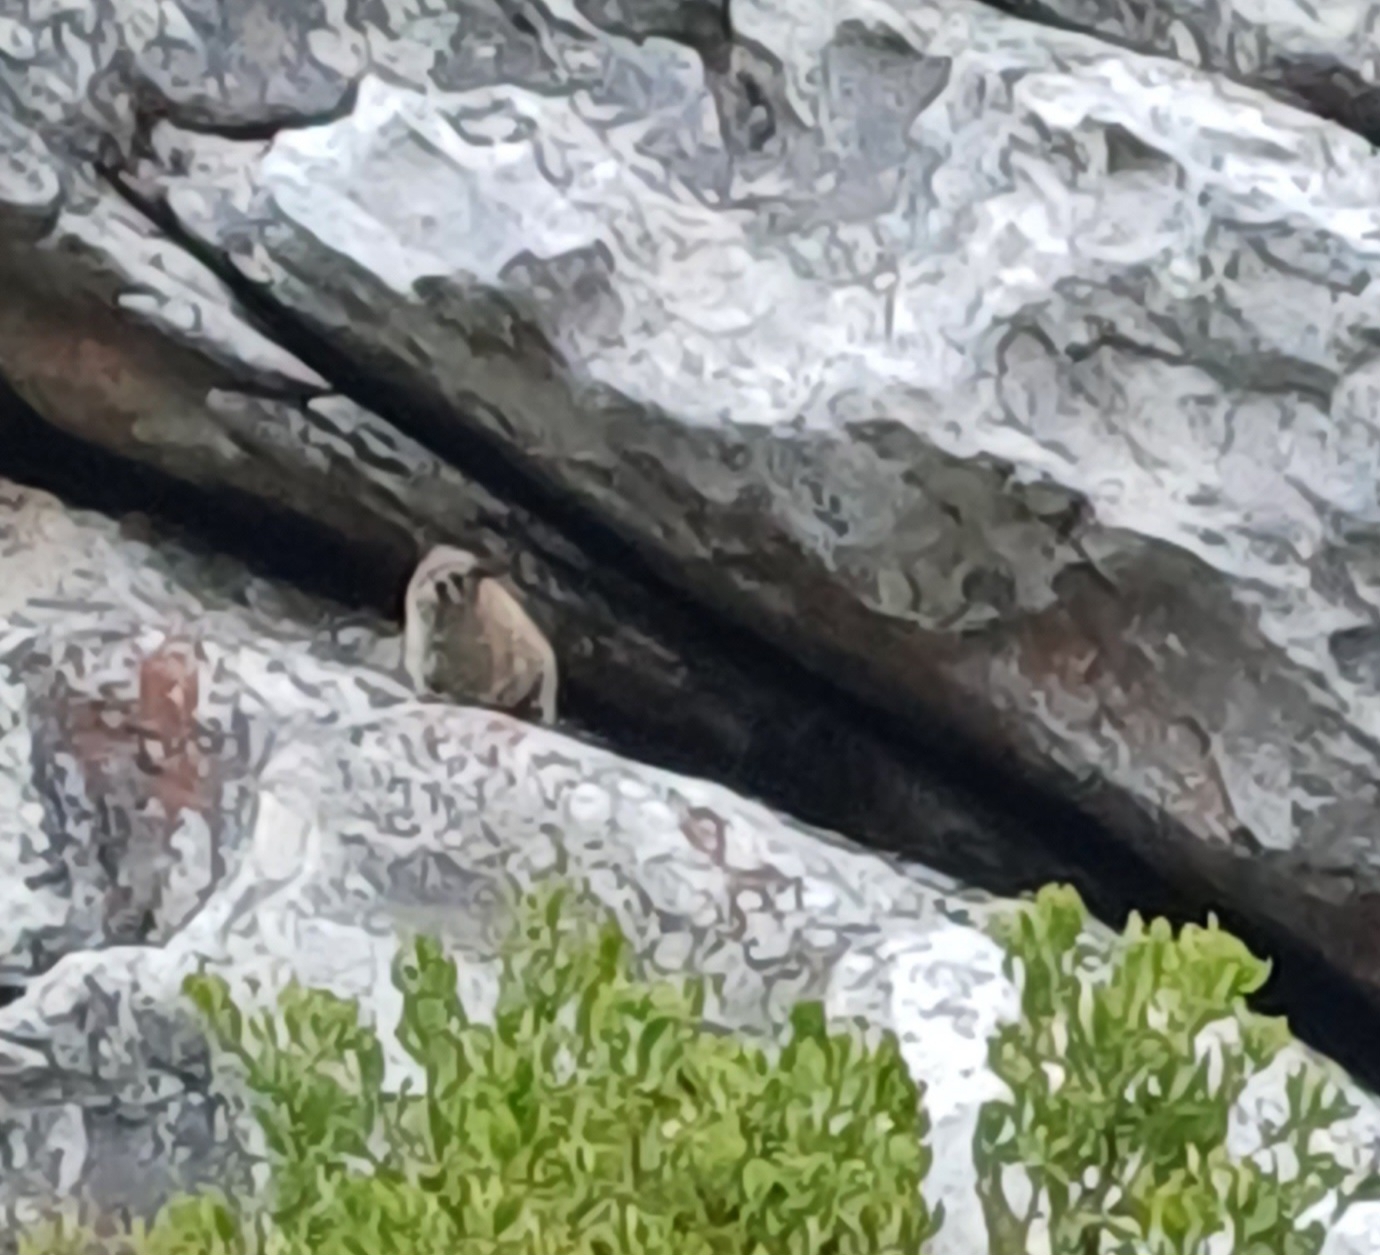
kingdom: Animalia
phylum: Chordata
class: Mammalia
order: Hyracoidea
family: Procaviidae
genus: Procavia
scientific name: Procavia capensis
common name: Rock hyrax
